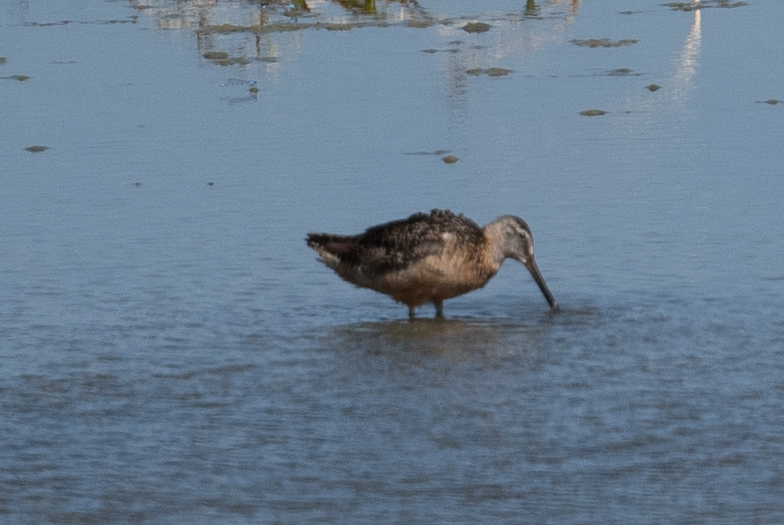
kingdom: Animalia
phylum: Chordata
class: Aves
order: Charadriiformes
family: Scolopacidae
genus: Limnodromus
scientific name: Limnodromus scolopaceus
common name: Long-billed dowitcher
